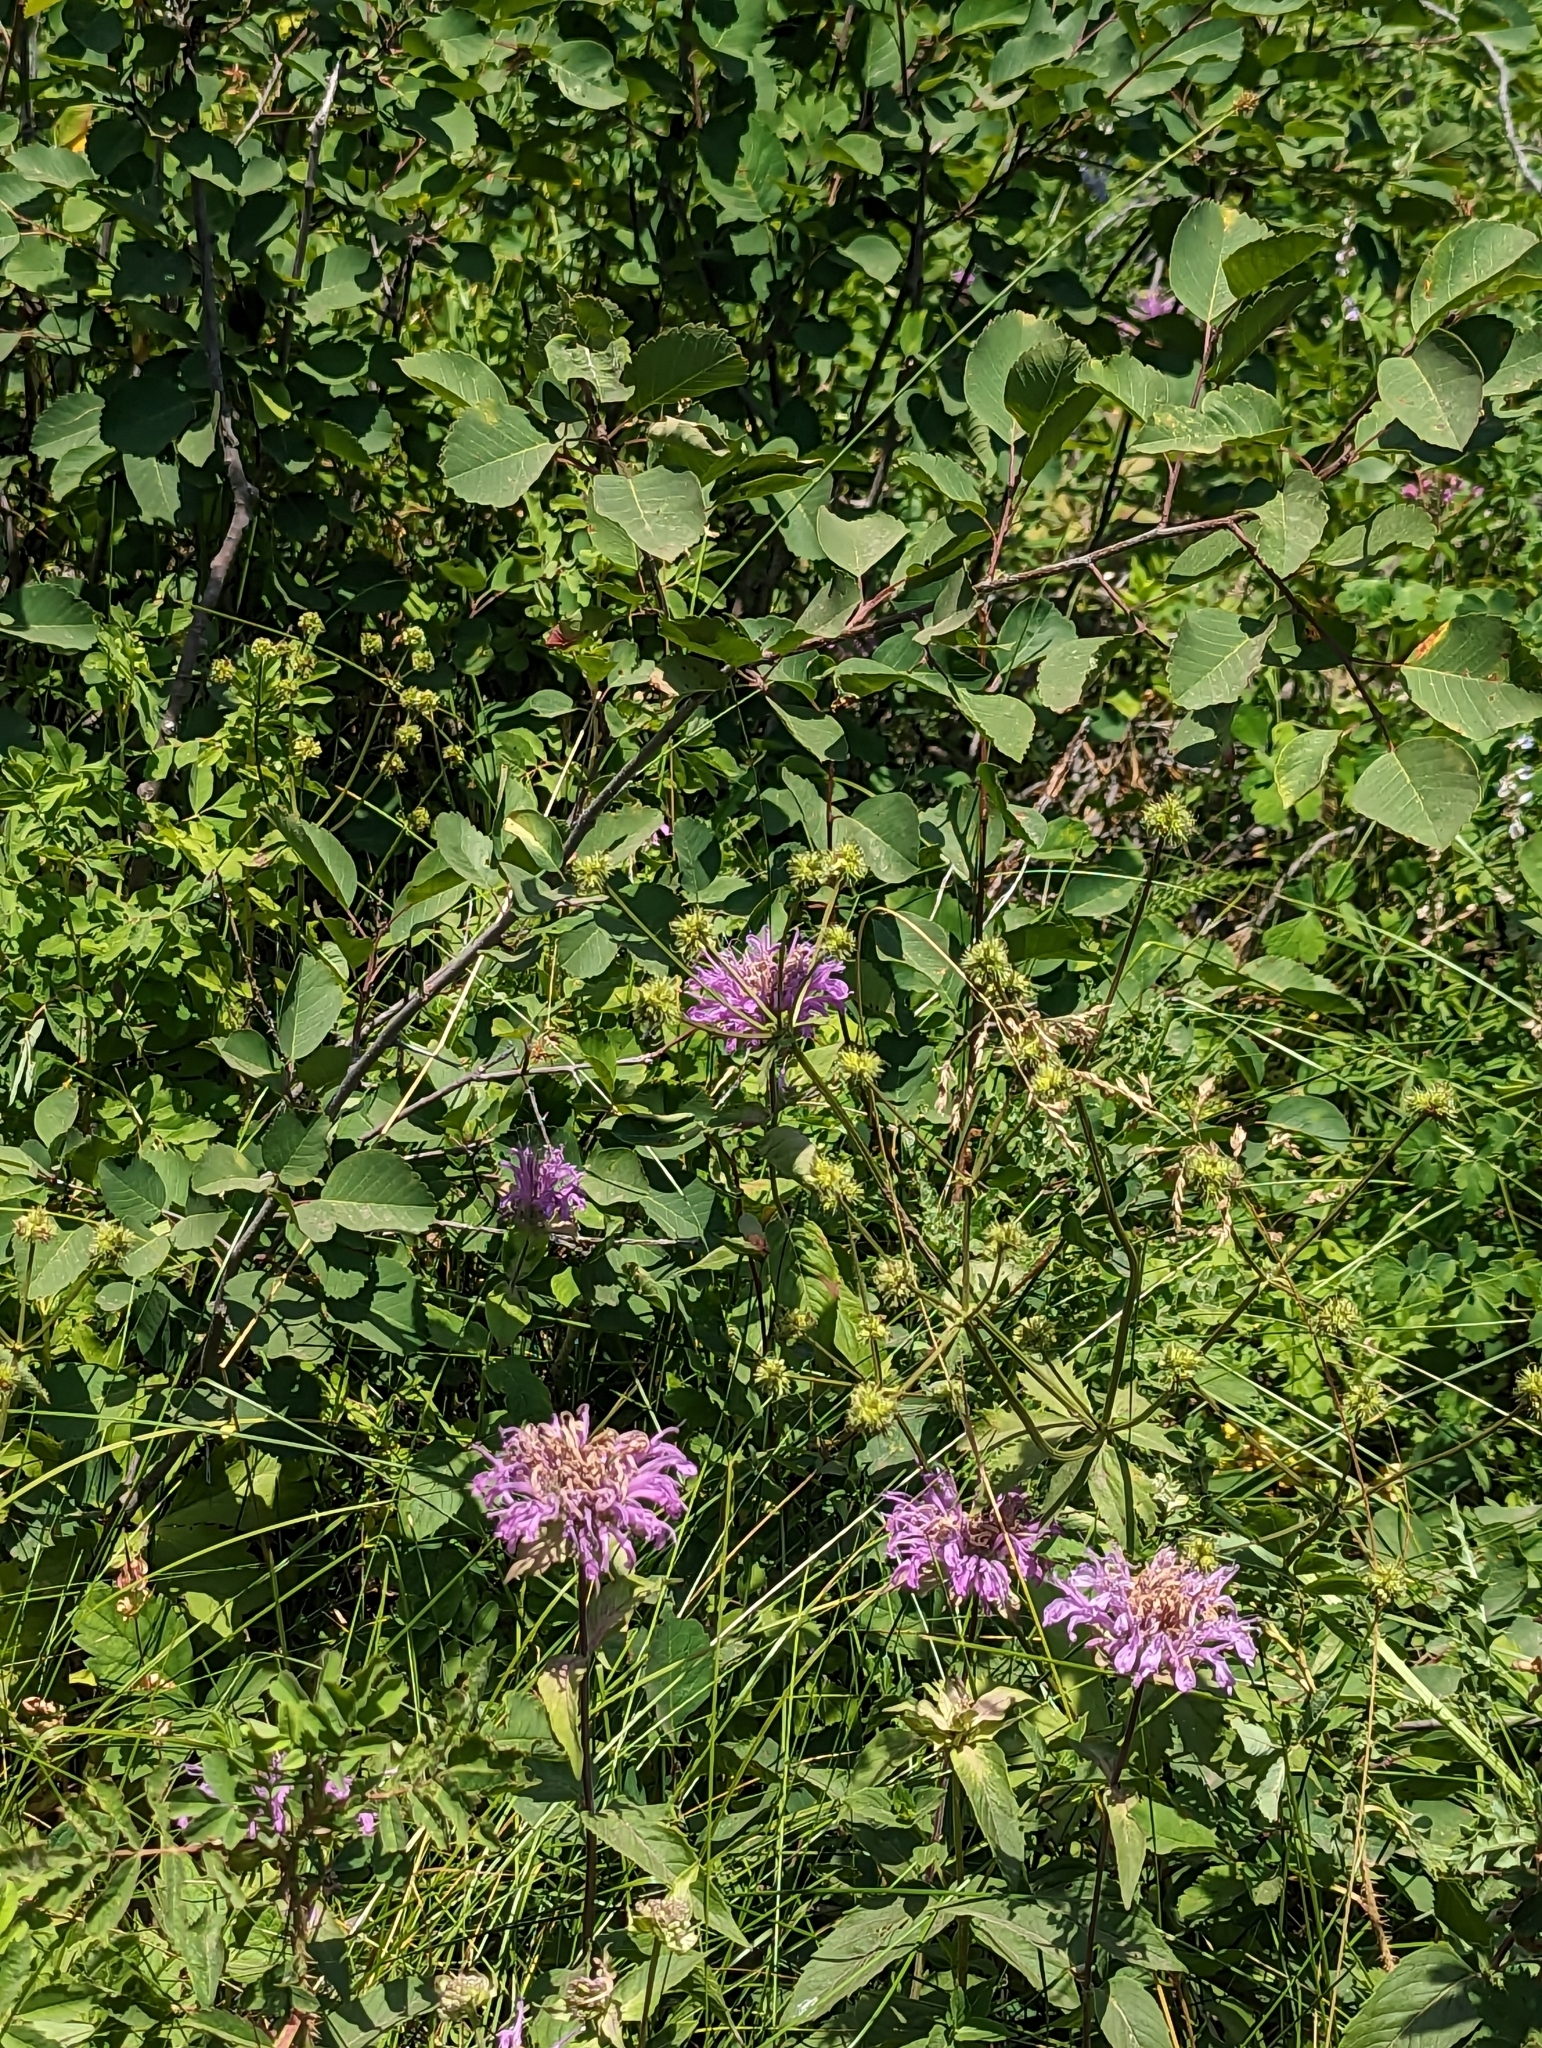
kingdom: Plantae
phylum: Tracheophyta
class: Magnoliopsida
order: Lamiales
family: Lamiaceae
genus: Monarda
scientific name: Monarda fistulosa
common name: Purple beebalm
